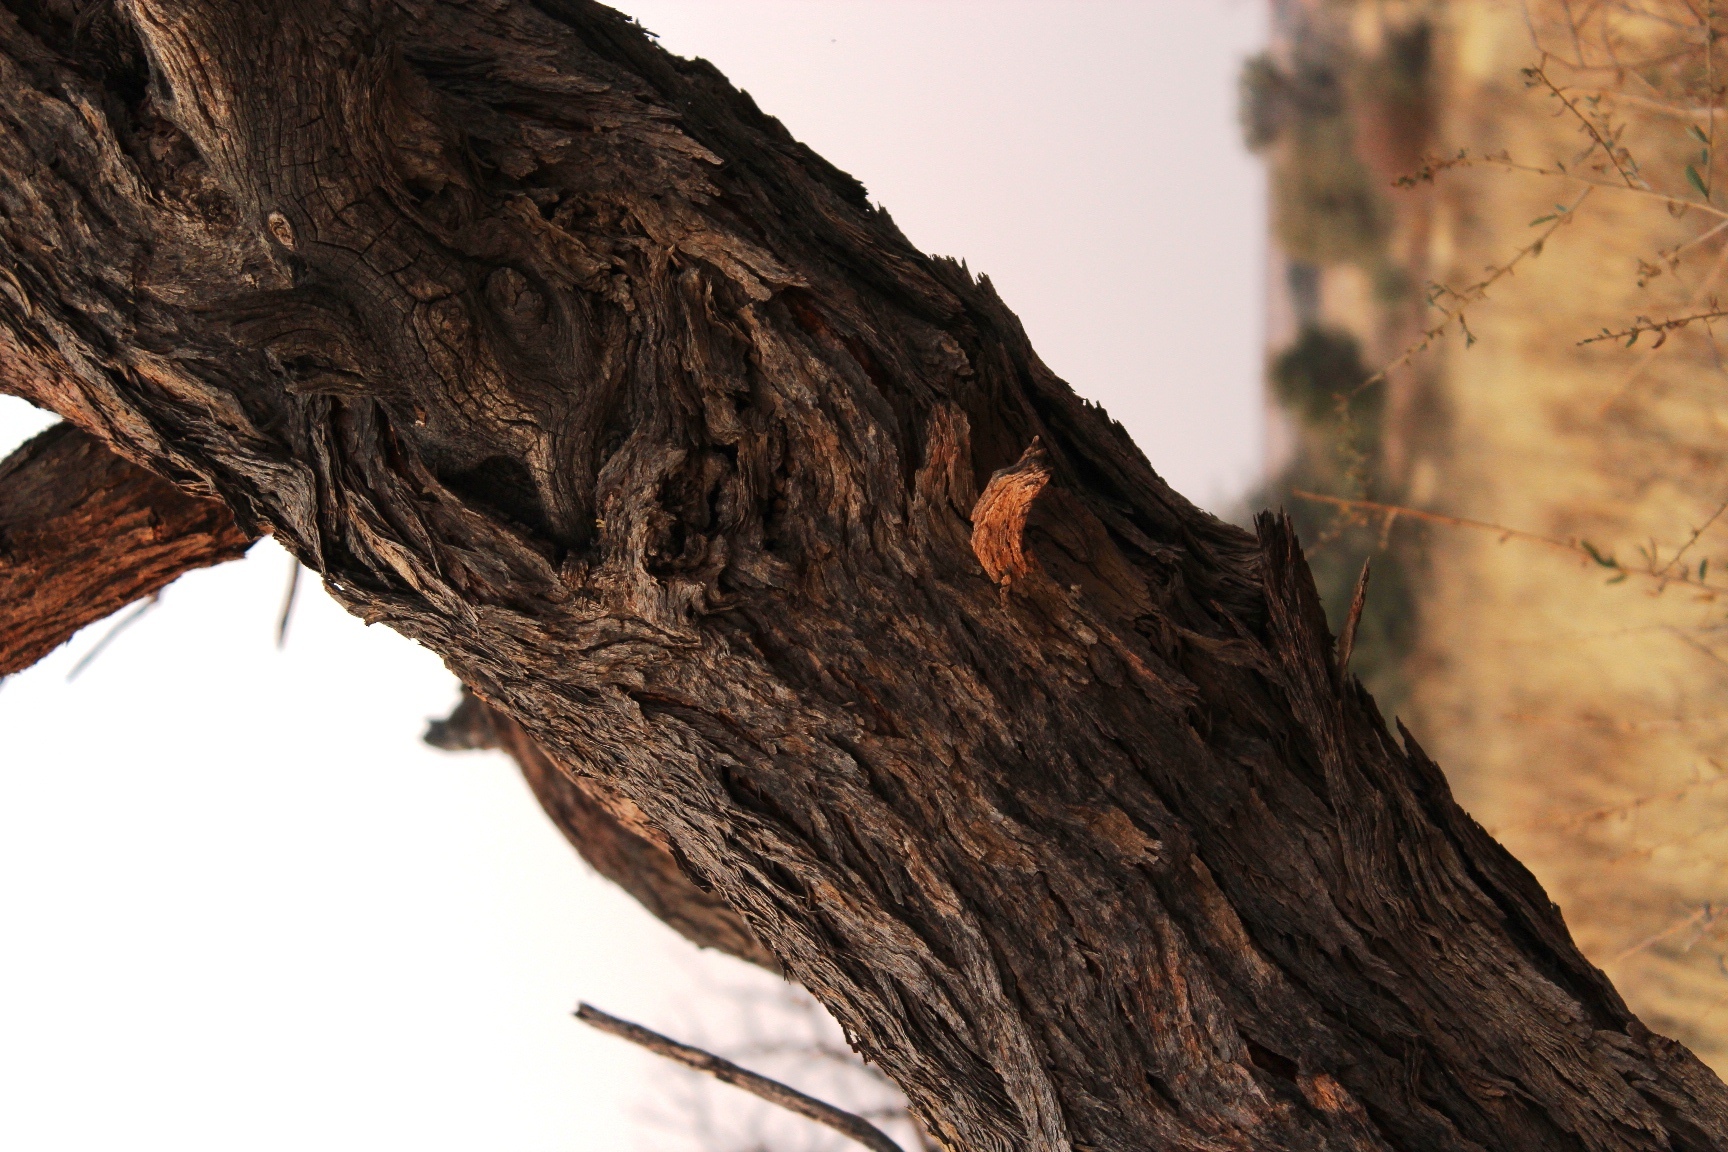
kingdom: Plantae
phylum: Tracheophyta
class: Magnoliopsida
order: Fabales
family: Fabaceae
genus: Vachellia
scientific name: Vachellia erioloba
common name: Camel thorn
